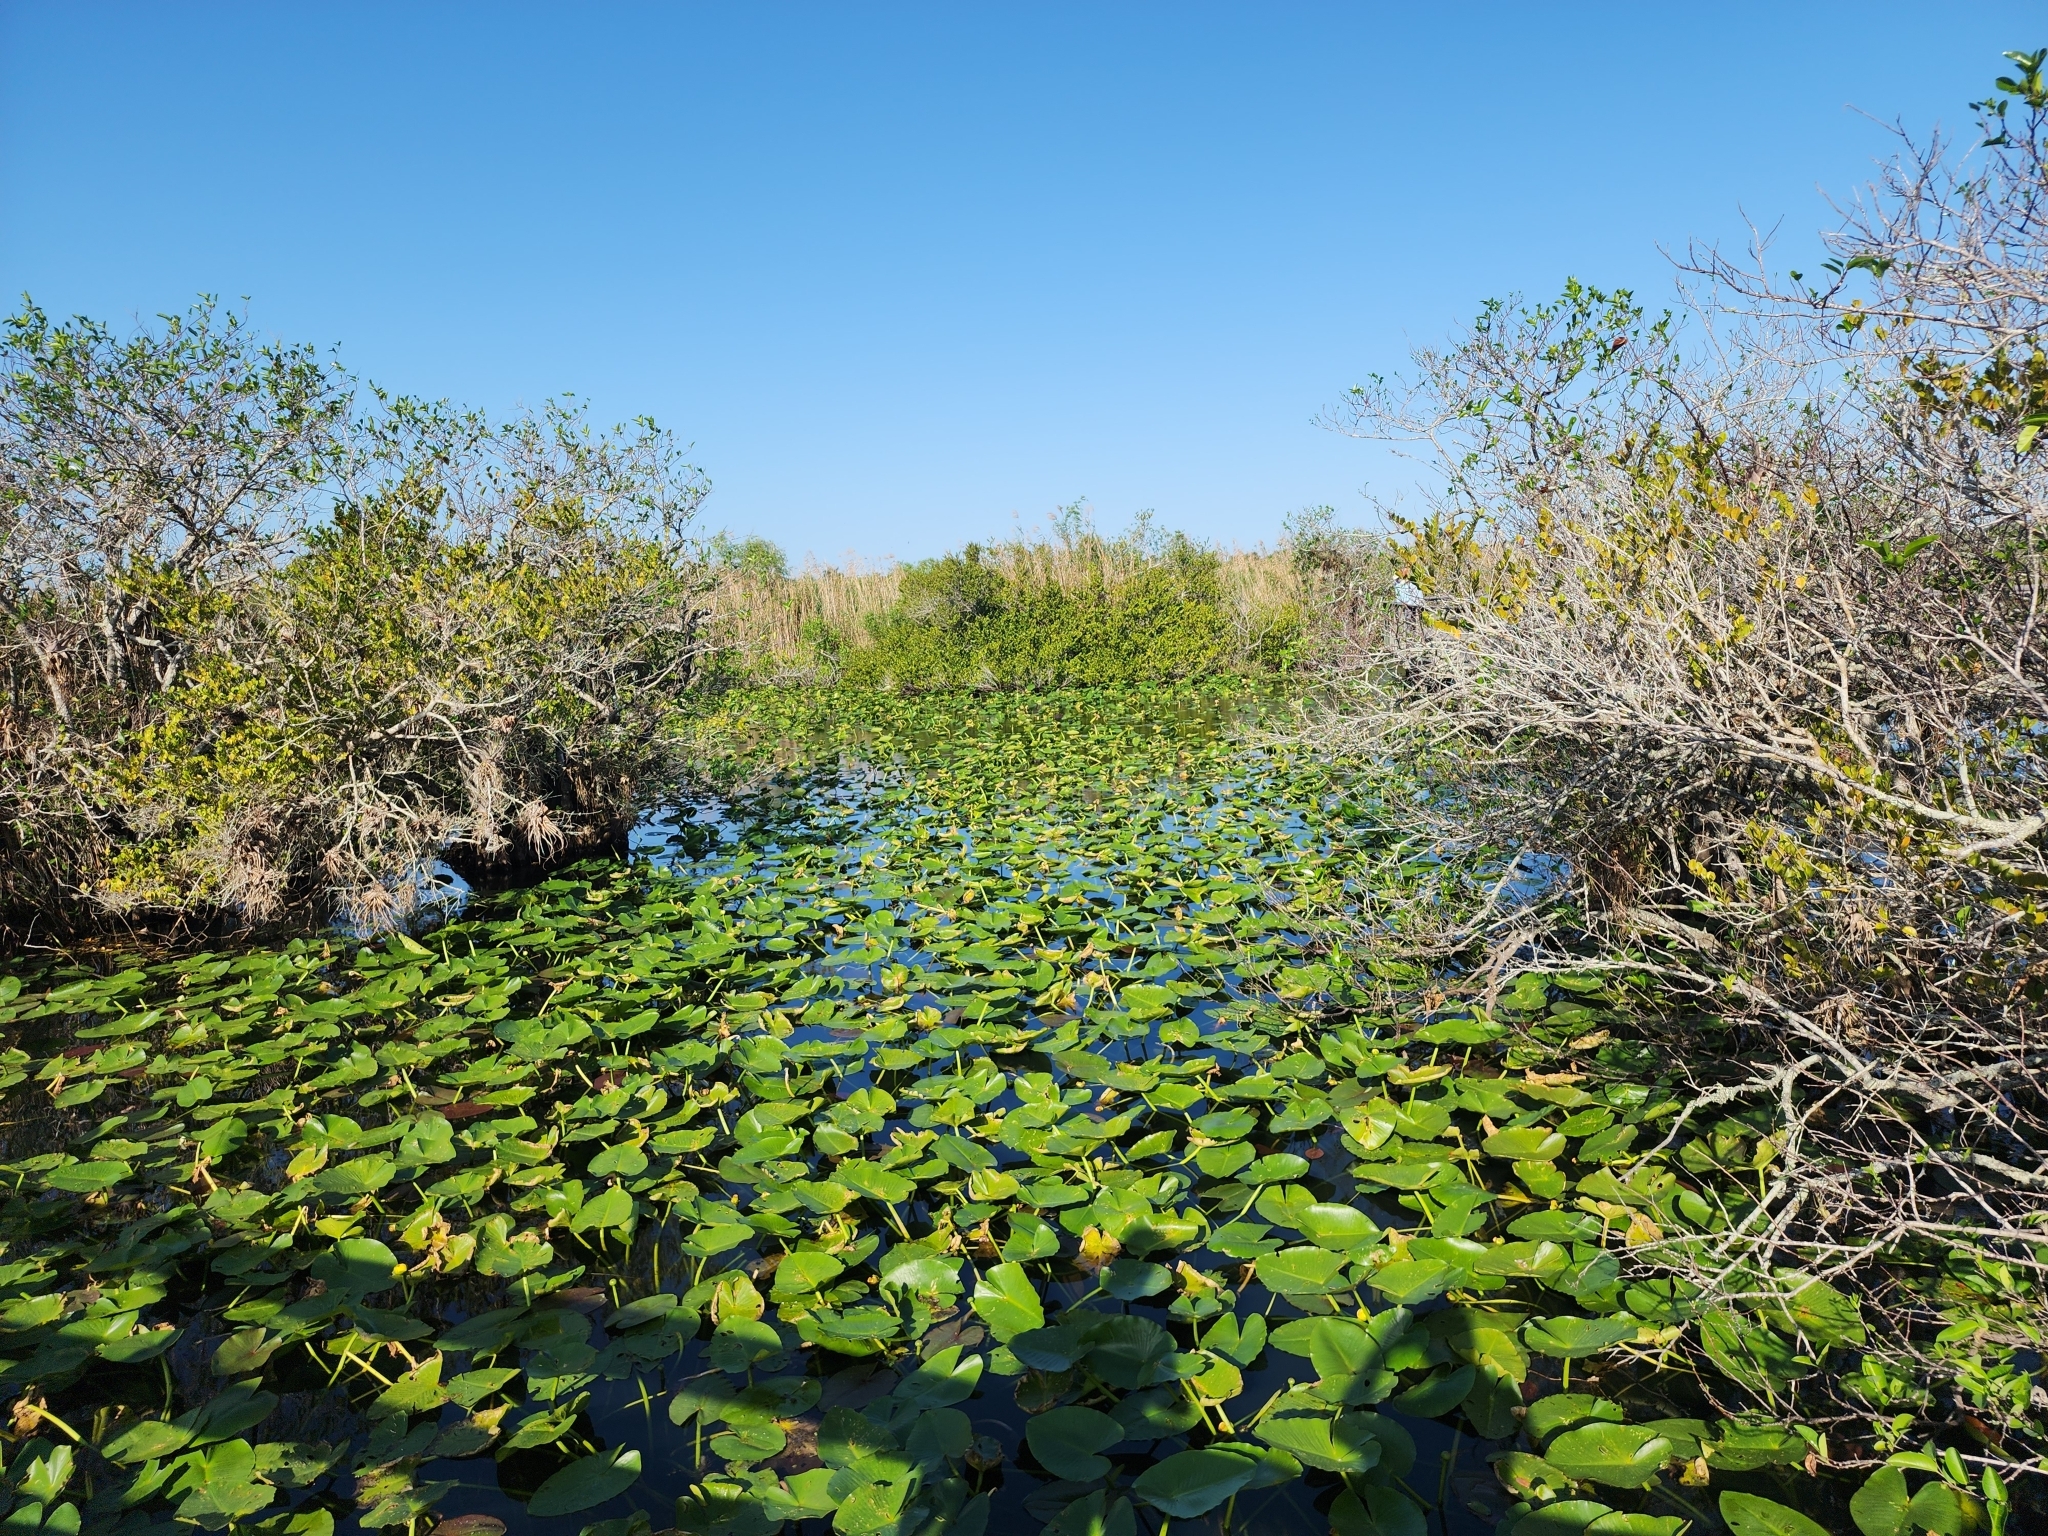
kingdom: Plantae
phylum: Tracheophyta
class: Magnoliopsida
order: Nymphaeales
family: Nymphaeaceae
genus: Nuphar
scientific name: Nuphar advena
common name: Spatter-dock
